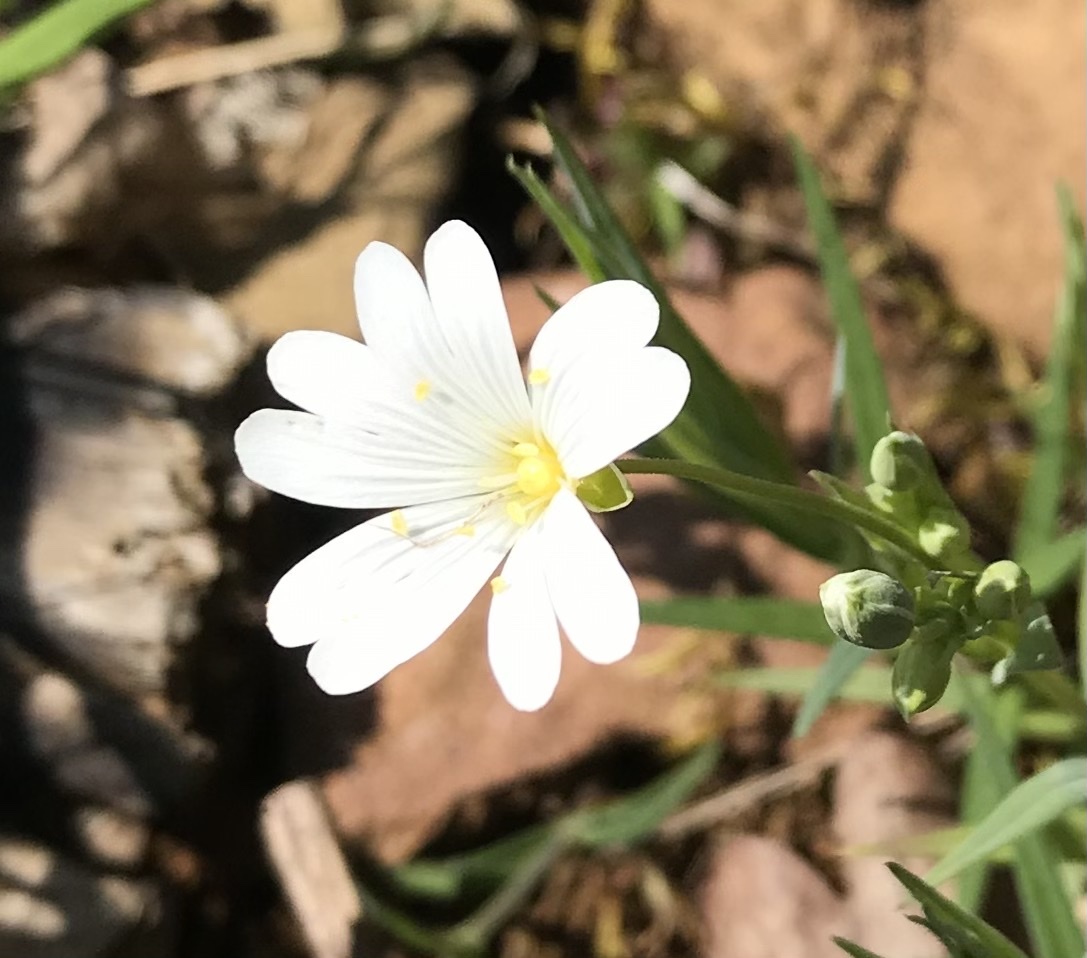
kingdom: Plantae
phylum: Tracheophyta
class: Magnoliopsida
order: Caryophyllales
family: Caryophyllaceae
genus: Rabelera
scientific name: Rabelera holostea
